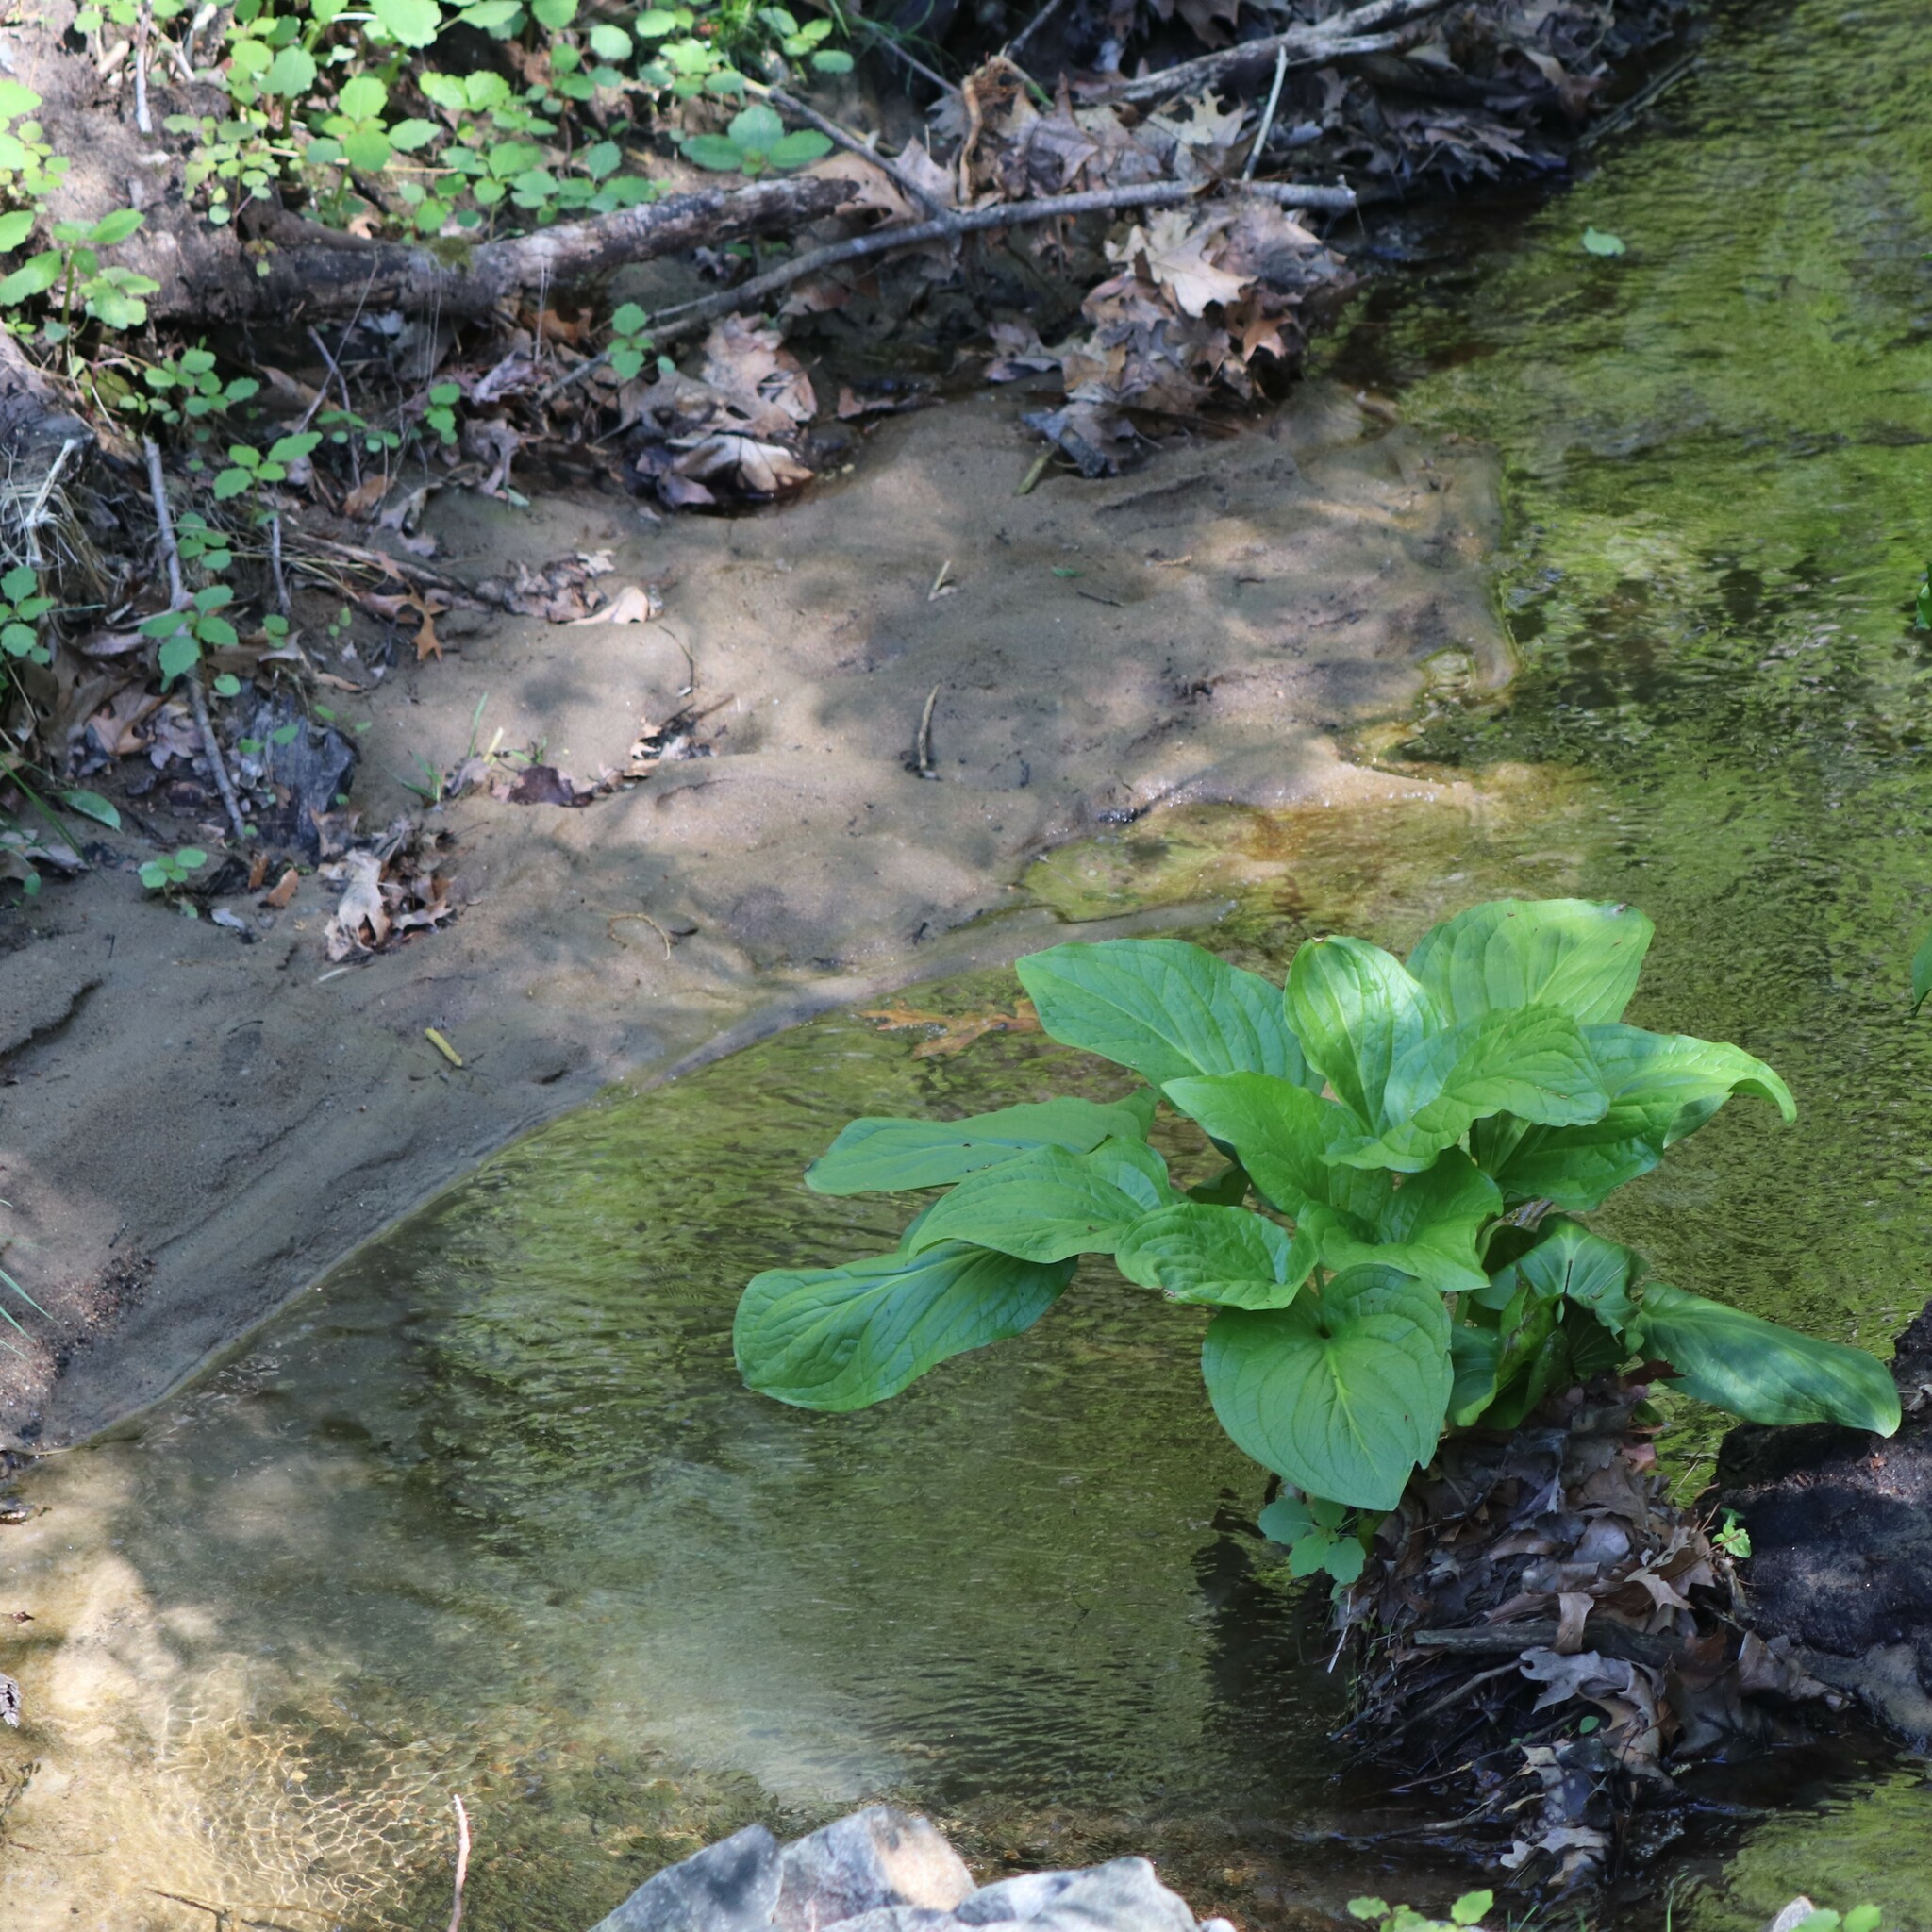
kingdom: Plantae
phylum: Tracheophyta
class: Liliopsida
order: Alismatales
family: Araceae
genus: Symplocarpus
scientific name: Symplocarpus foetidus
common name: Eastern skunk cabbage
